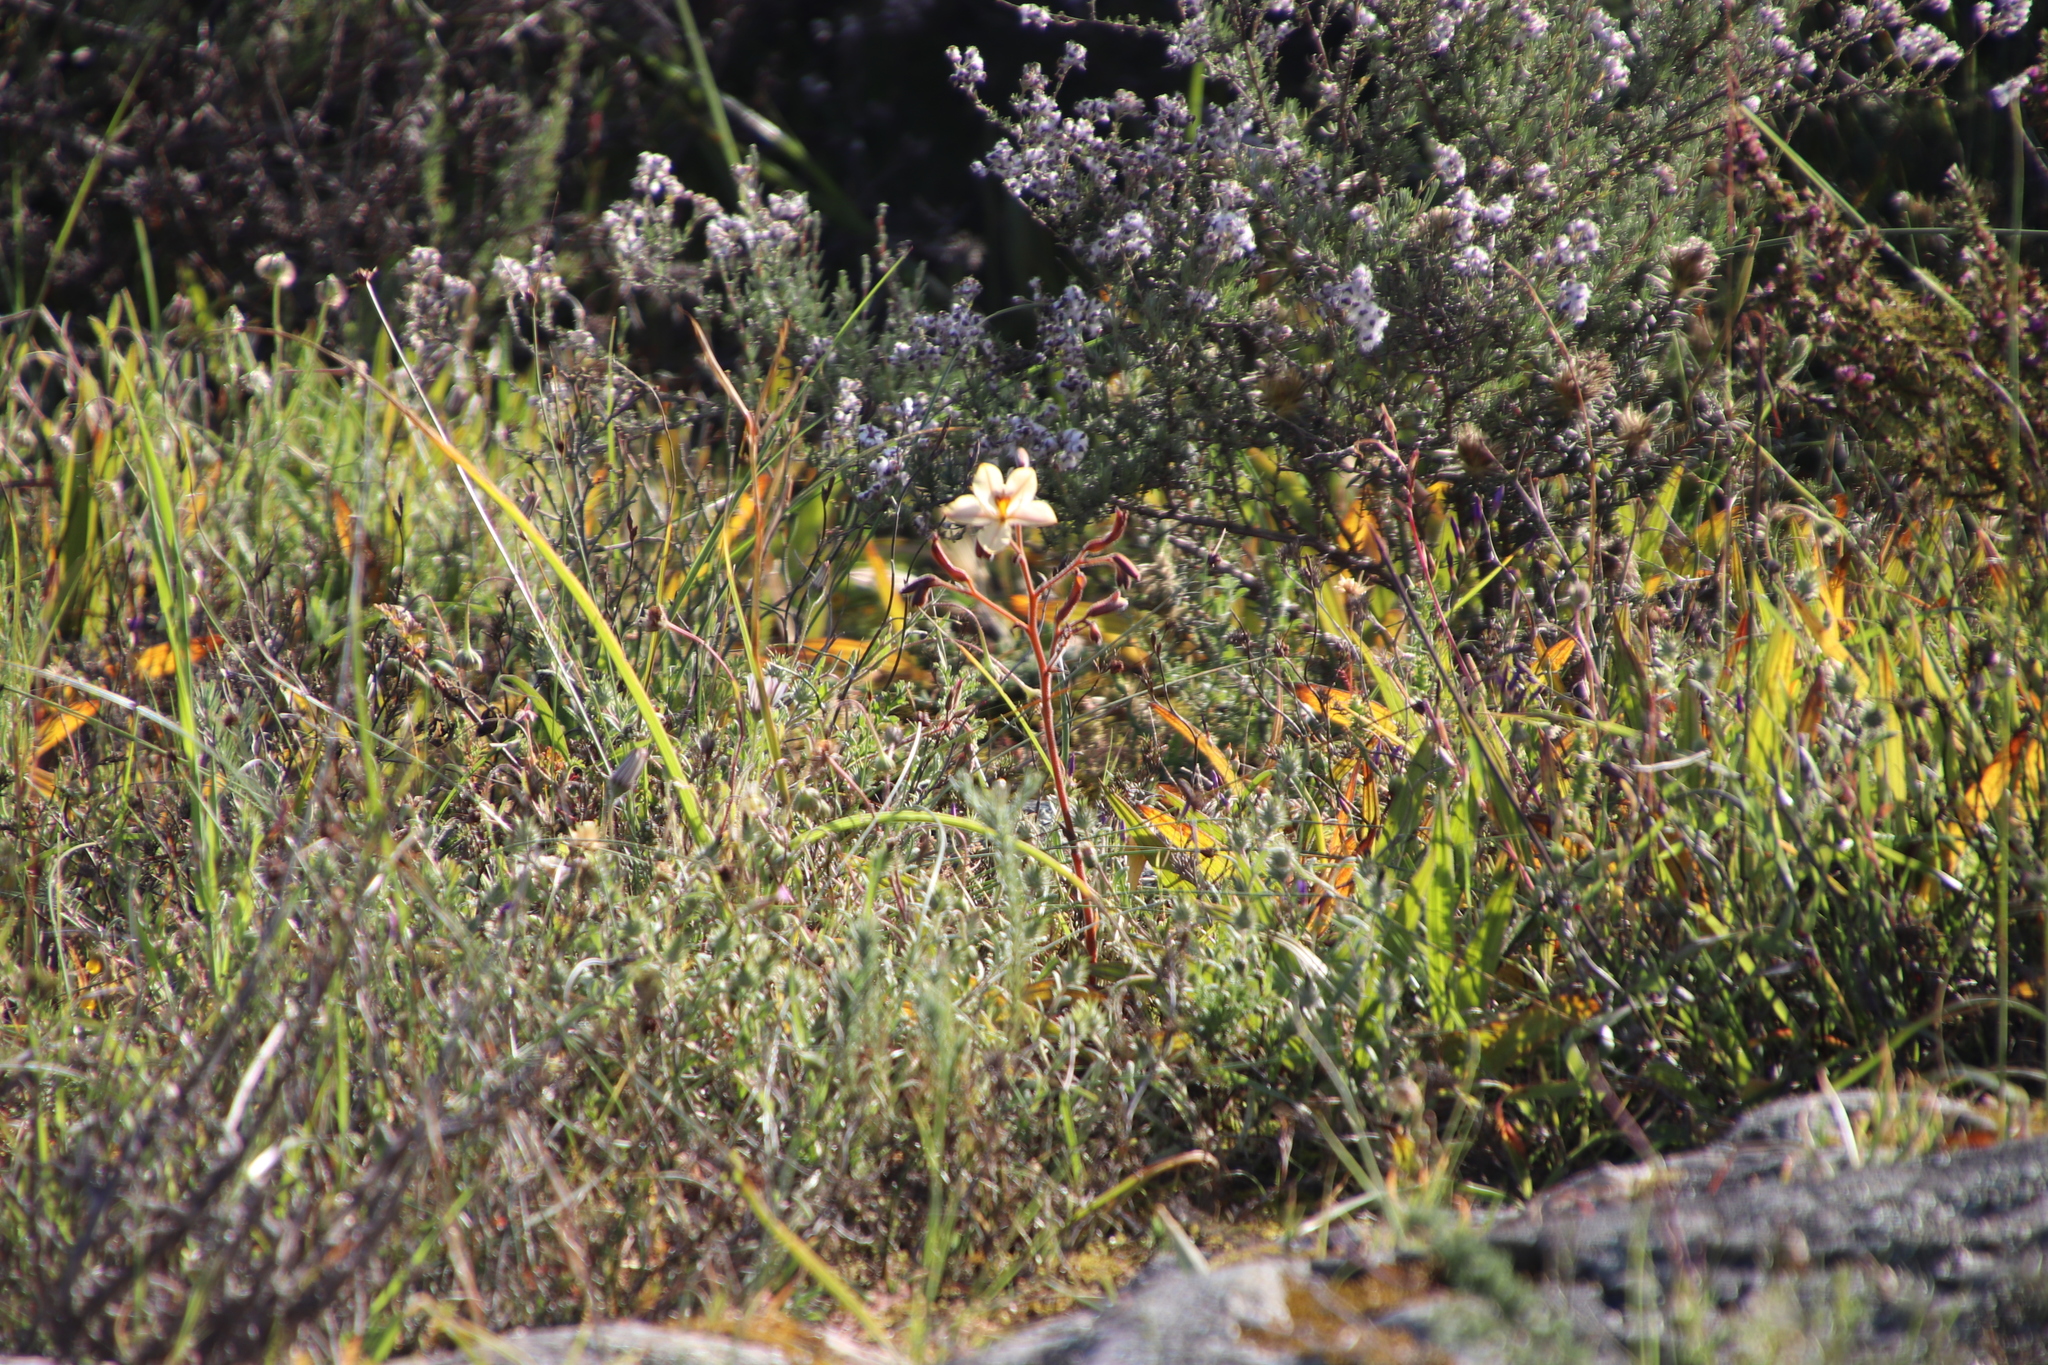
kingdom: Plantae
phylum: Tracheophyta
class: Liliopsida
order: Commelinales
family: Haemodoraceae
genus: Wachendorfia
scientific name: Wachendorfia paniculata
